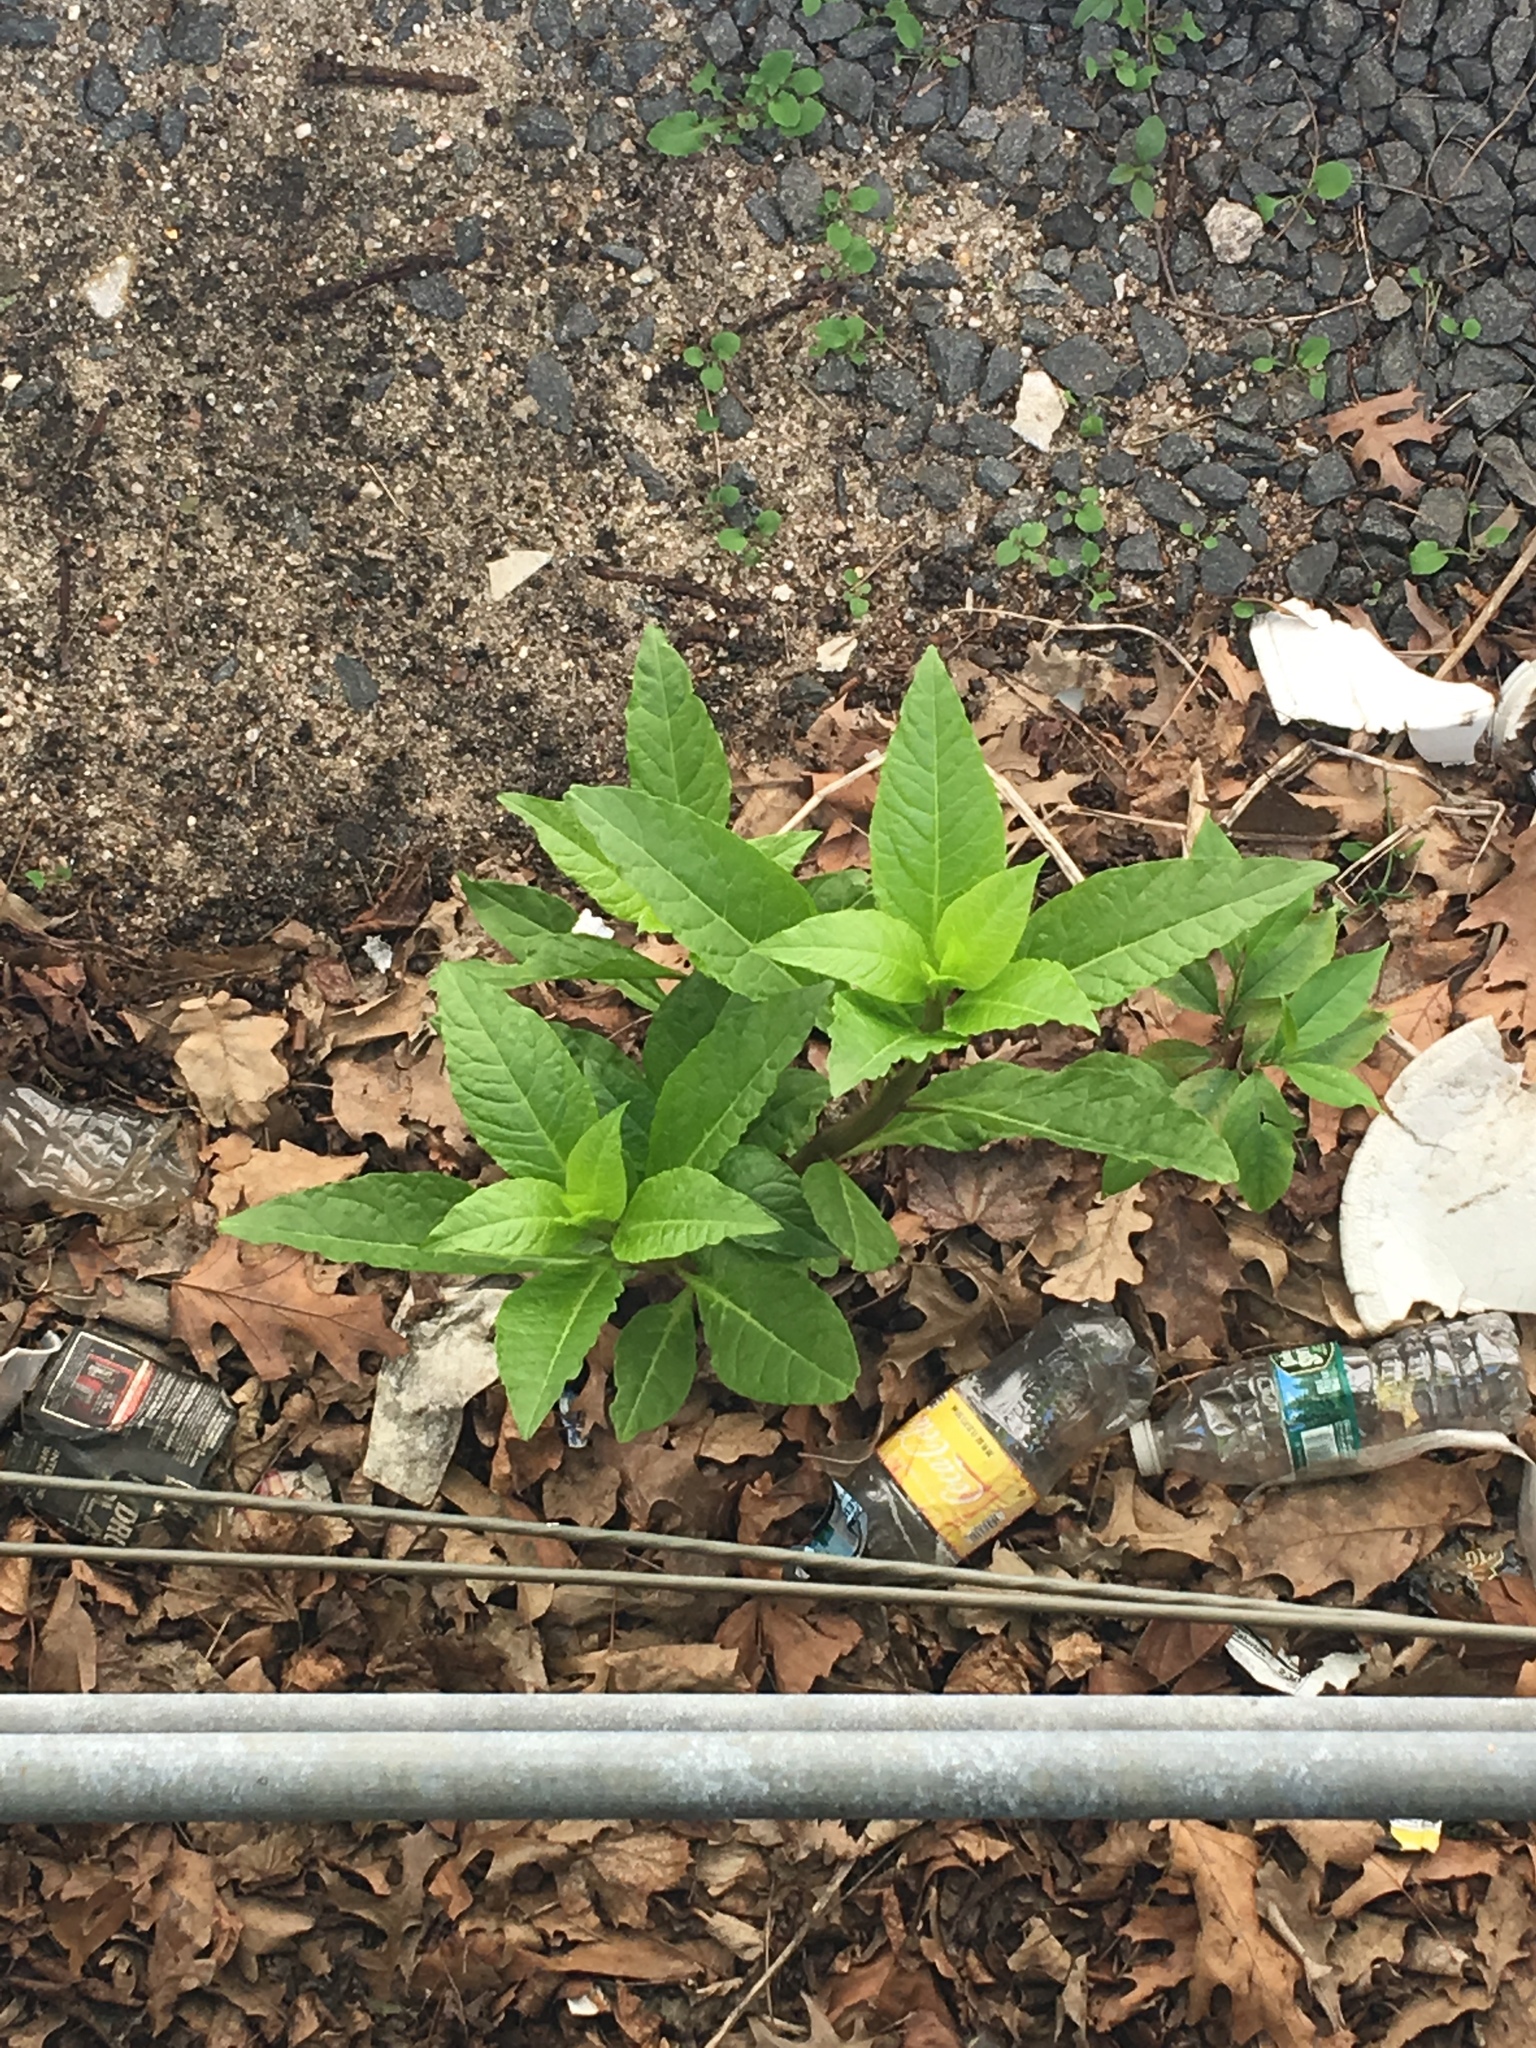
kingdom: Plantae
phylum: Tracheophyta
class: Magnoliopsida
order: Caryophyllales
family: Phytolaccaceae
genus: Phytolacca
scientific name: Phytolacca americana
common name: American pokeweed
